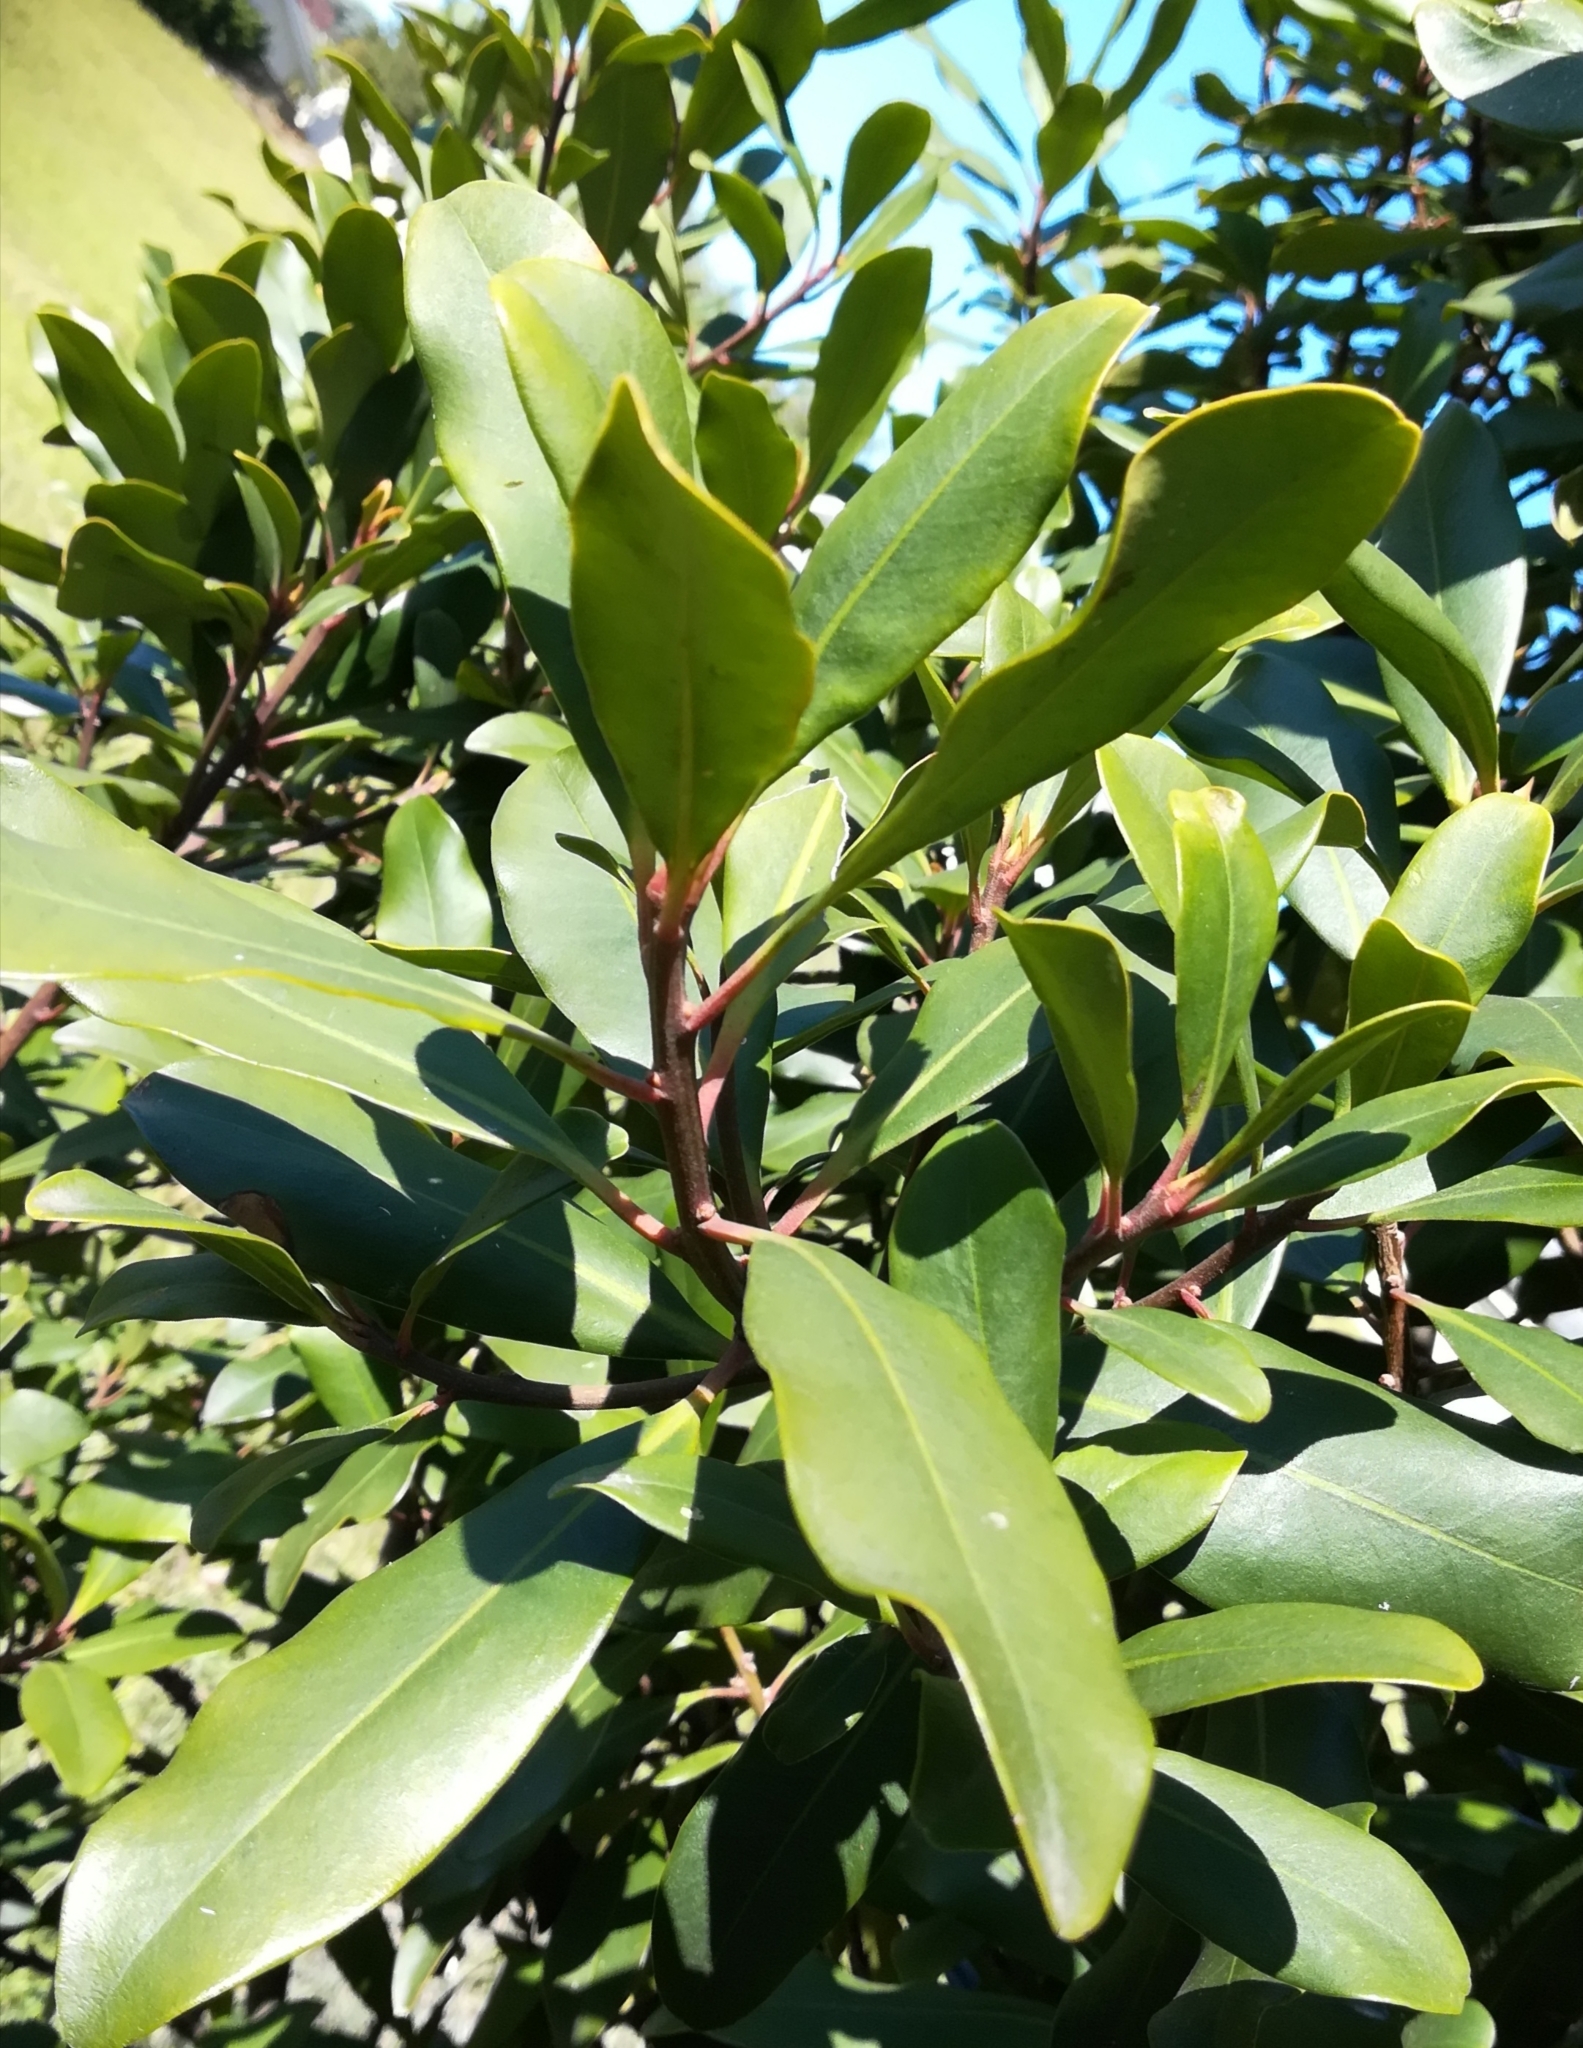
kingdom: Plantae
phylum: Tracheophyta
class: Magnoliopsida
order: Ericales
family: Primulaceae
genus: Myrsine
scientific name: Myrsine melanophloeos
